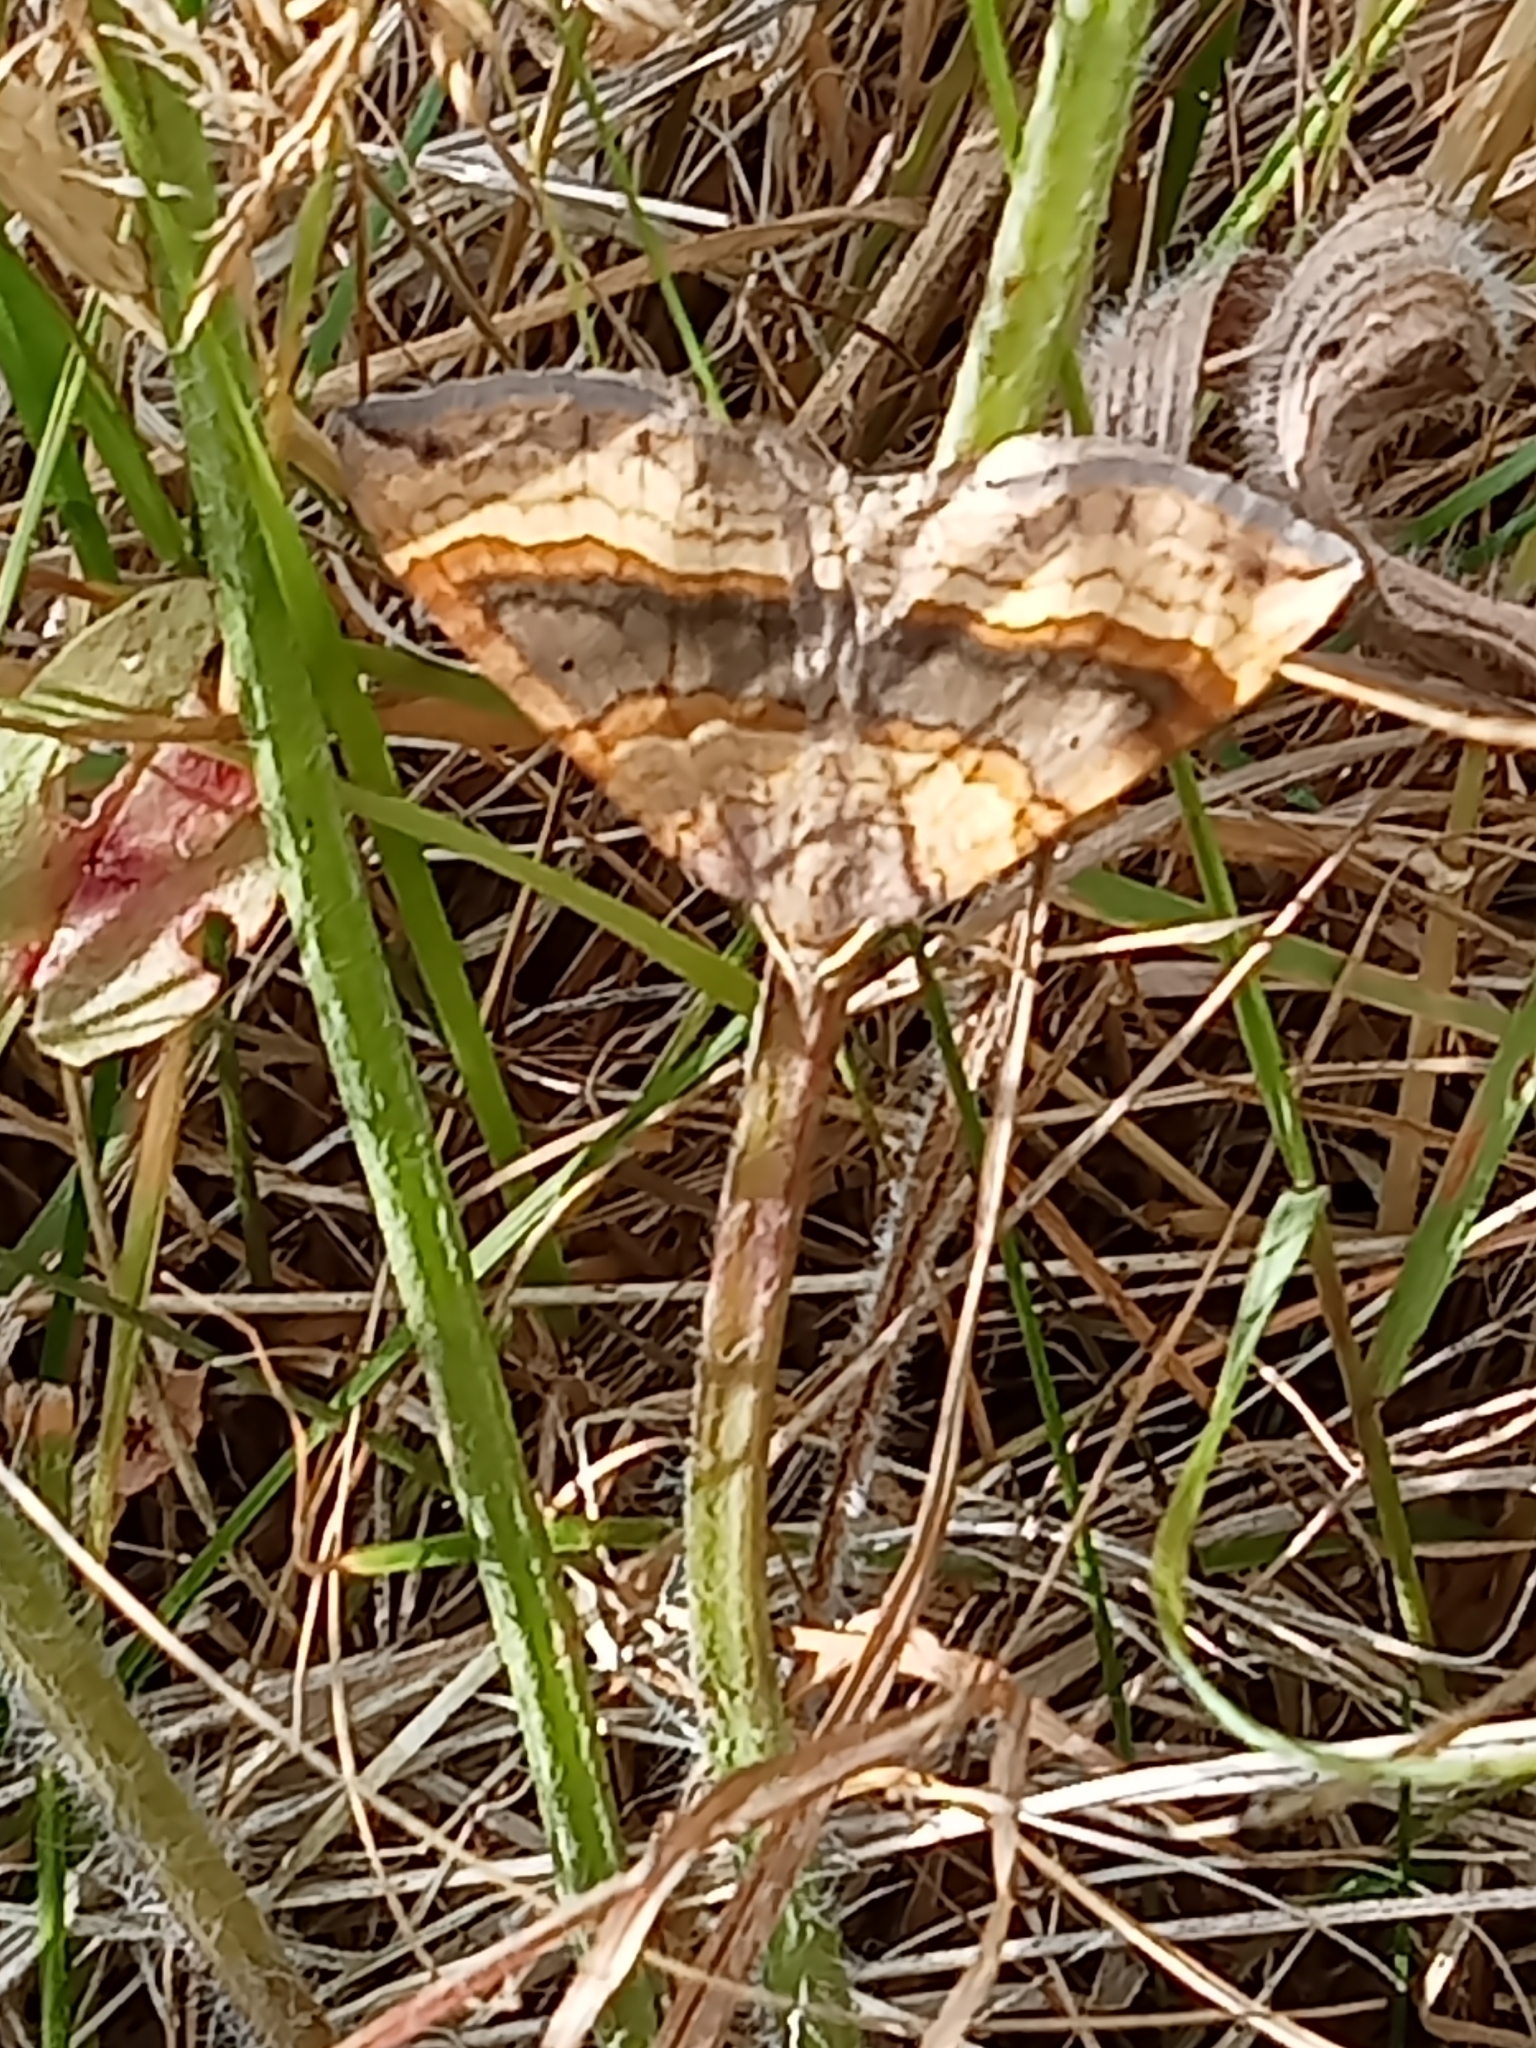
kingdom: Animalia
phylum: Arthropoda
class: Insecta
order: Lepidoptera
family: Geometridae
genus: Scotopteryx
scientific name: Scotopteryx chenopodiata
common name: Shaded broad-bar
